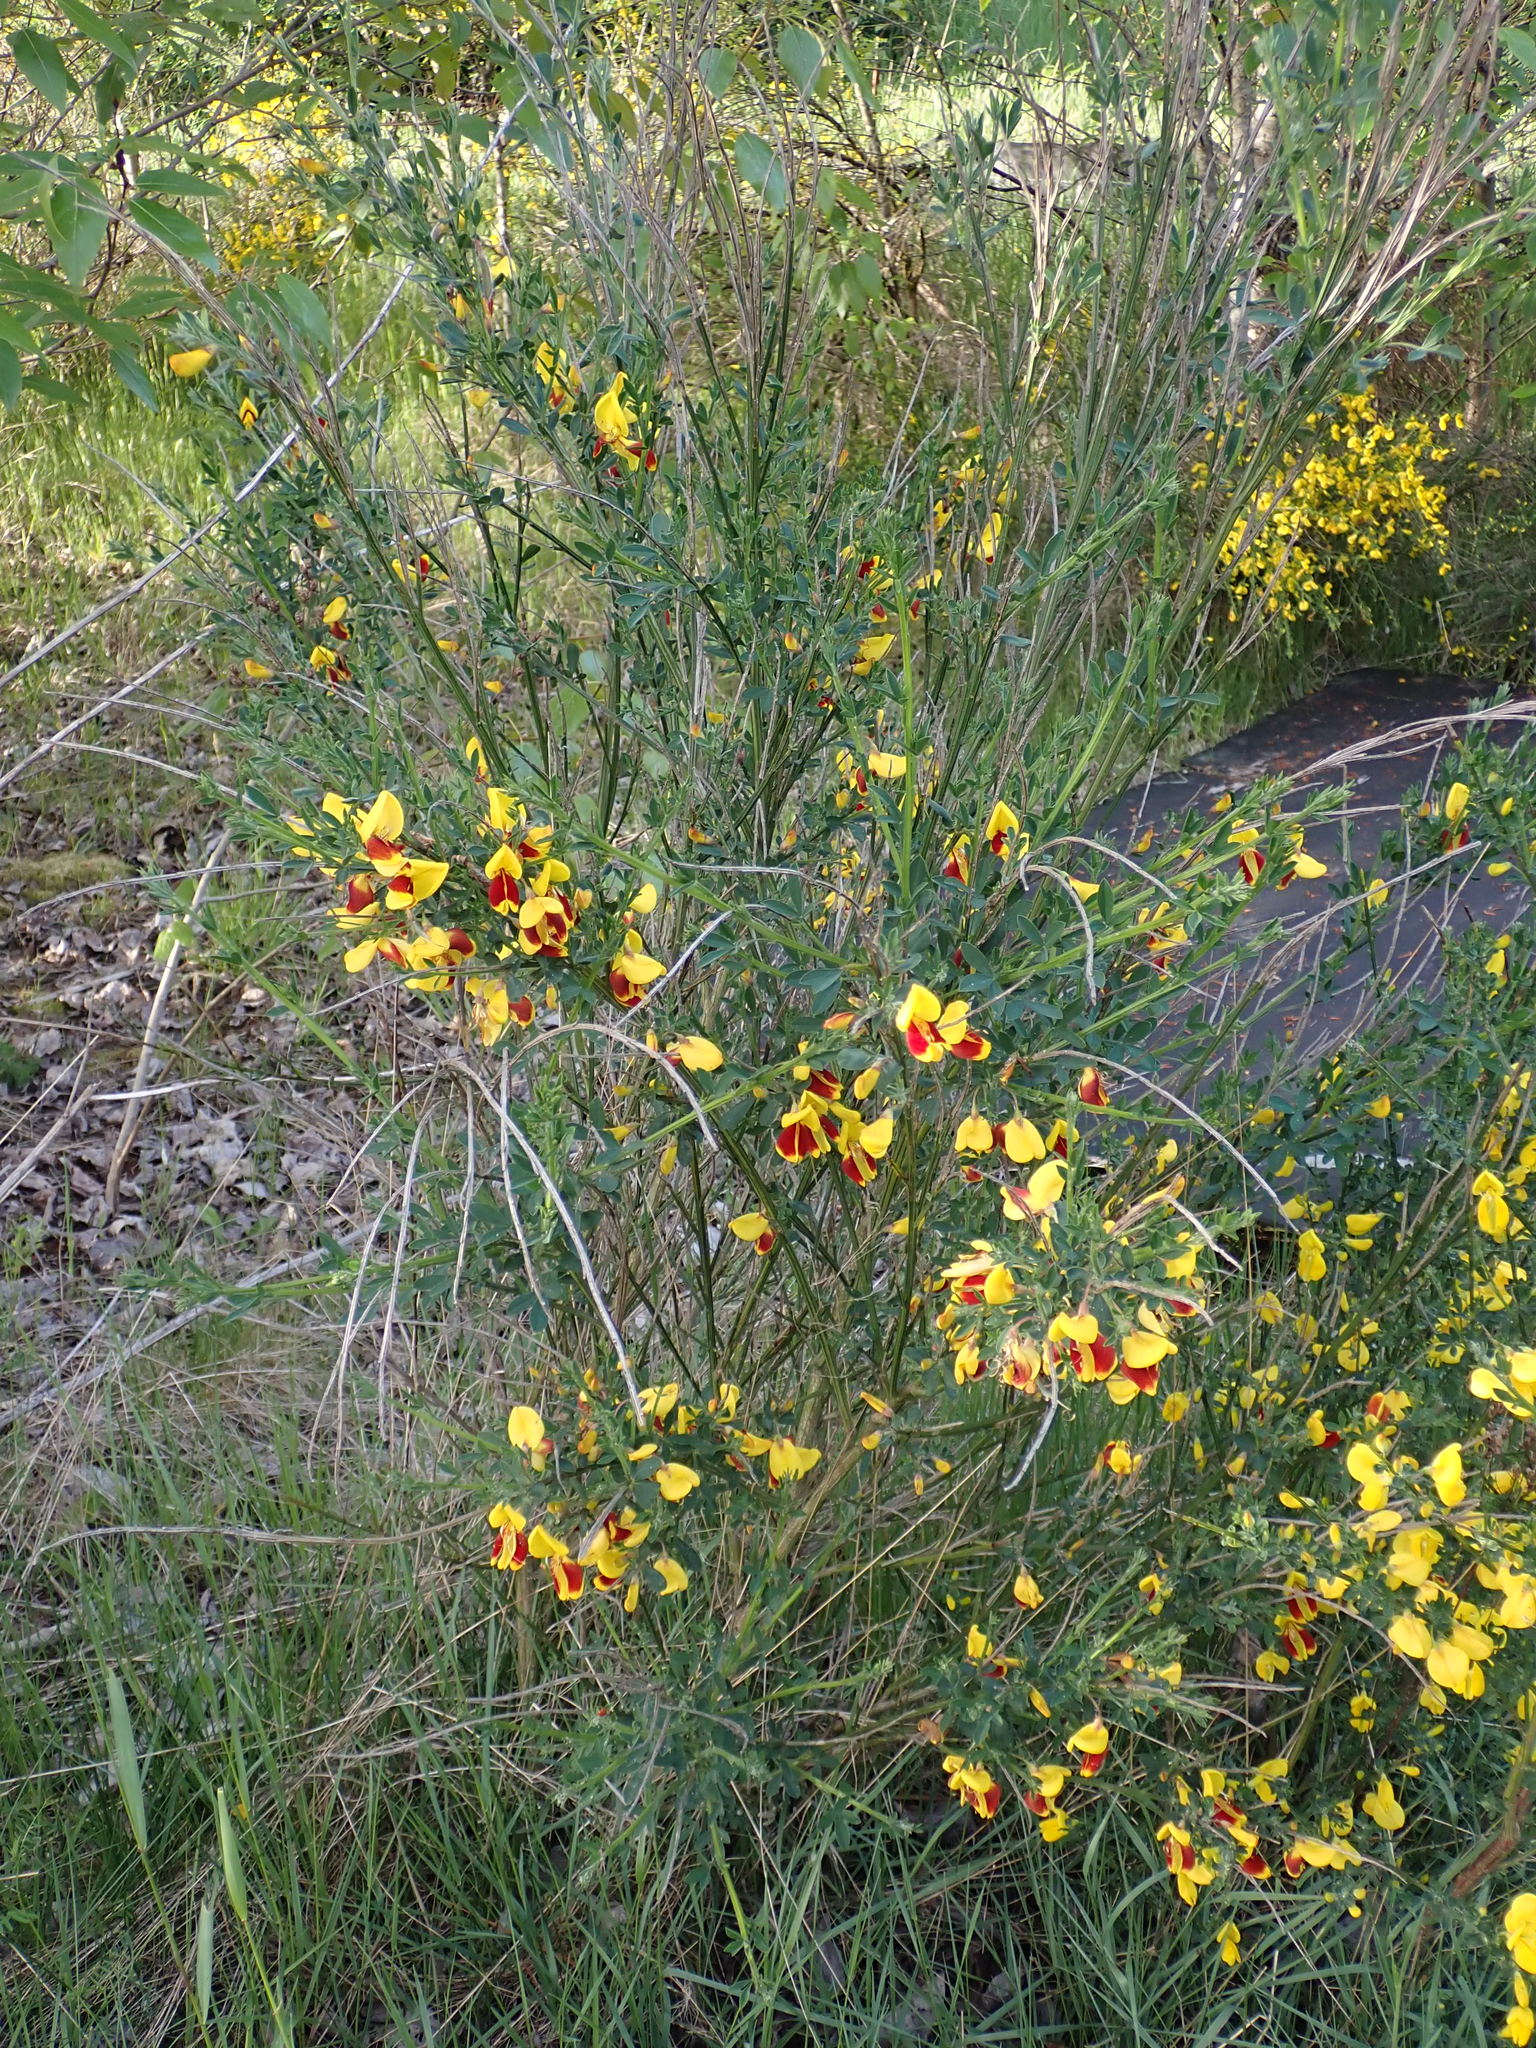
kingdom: Plantae
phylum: Tracheophyta
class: Magnoliopsida
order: Fabales
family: Fabaceae
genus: Cytisus
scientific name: Cytisus scoparius
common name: Scotch broom
